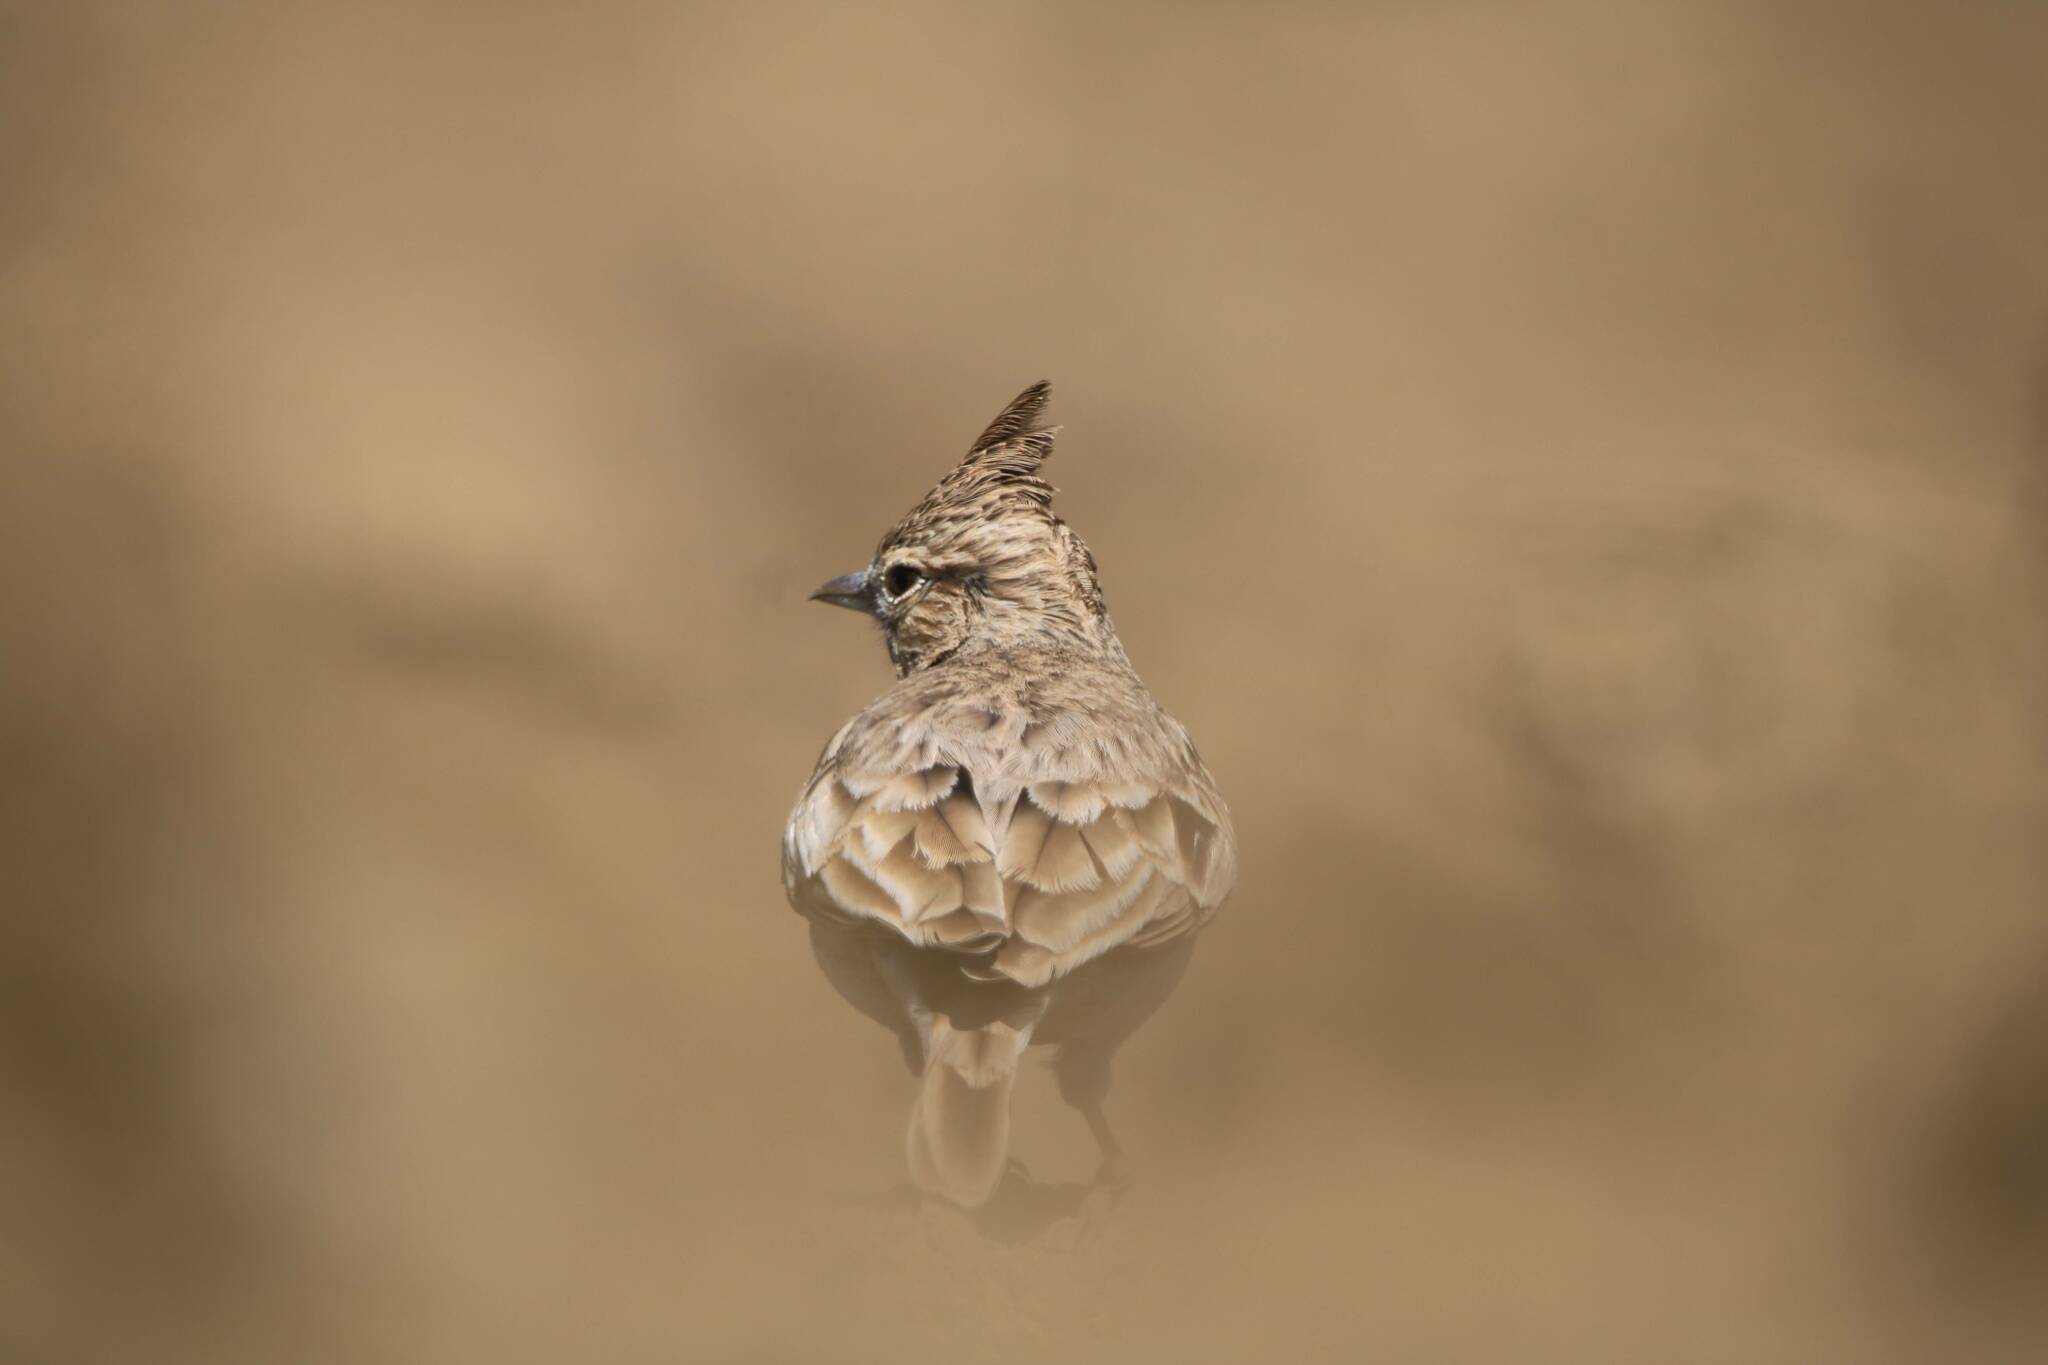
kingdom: Animalia
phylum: Chordata
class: Aves
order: Passeriformes
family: Alaudidae
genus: Galerida
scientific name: Galerida cristata
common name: Crested lark
